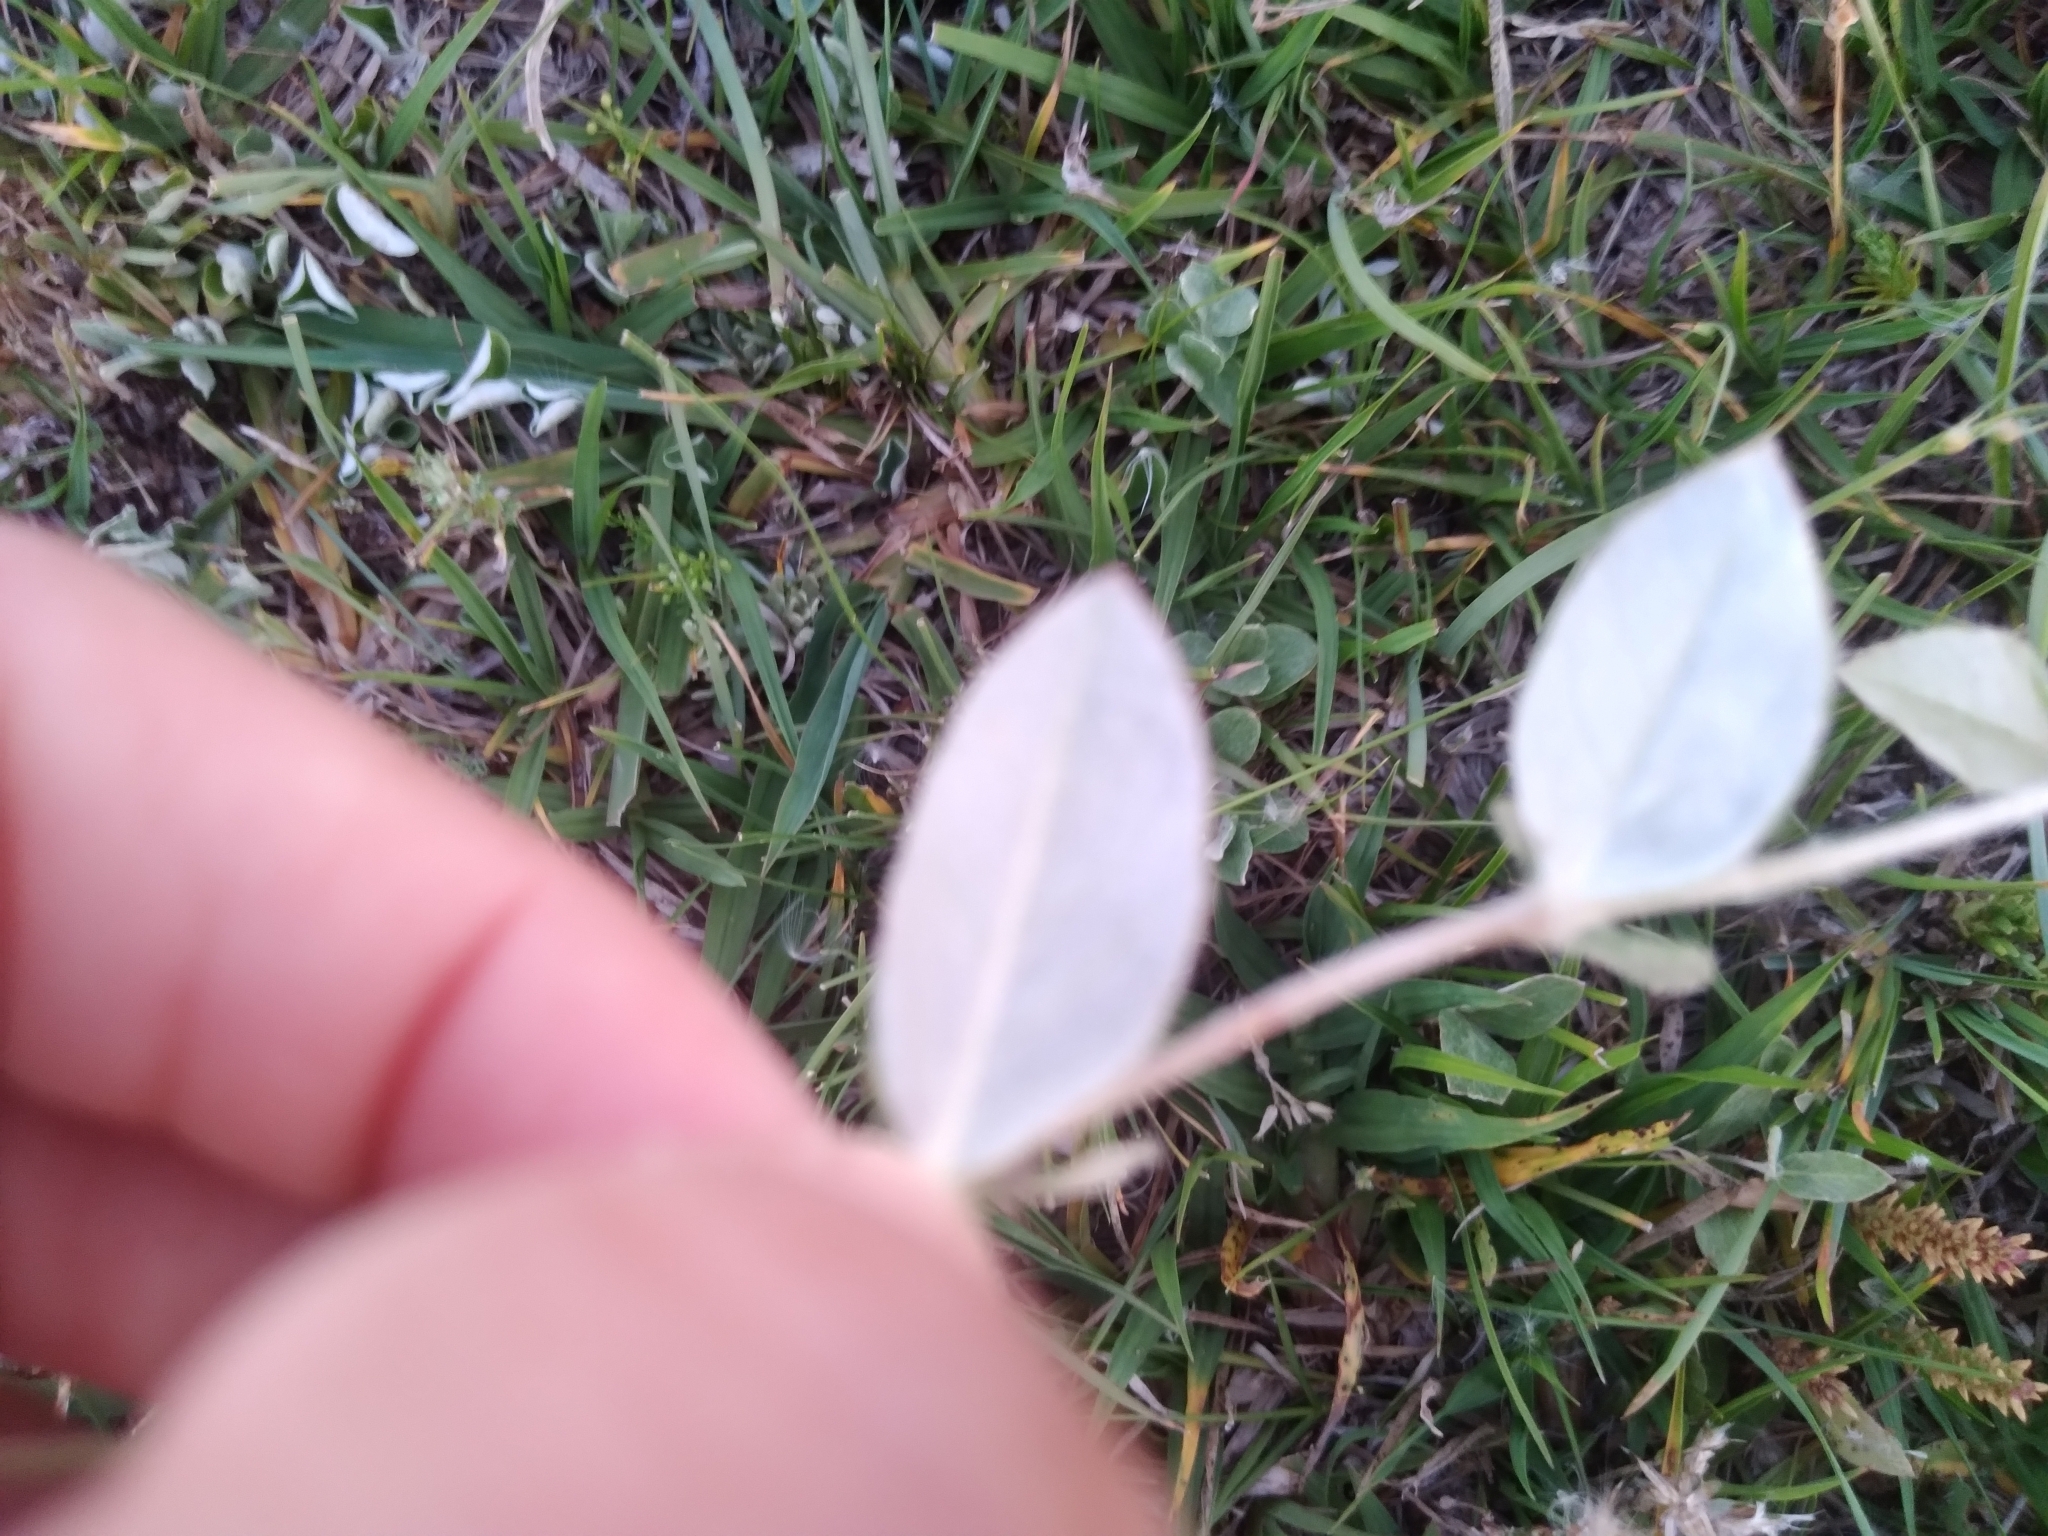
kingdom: Plantae
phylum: Tracheophyta
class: Magnoliopsida
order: Caryophyllales
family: Amaranthaceae
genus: Pfaffia
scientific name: Pfaffia gnaphalioides
